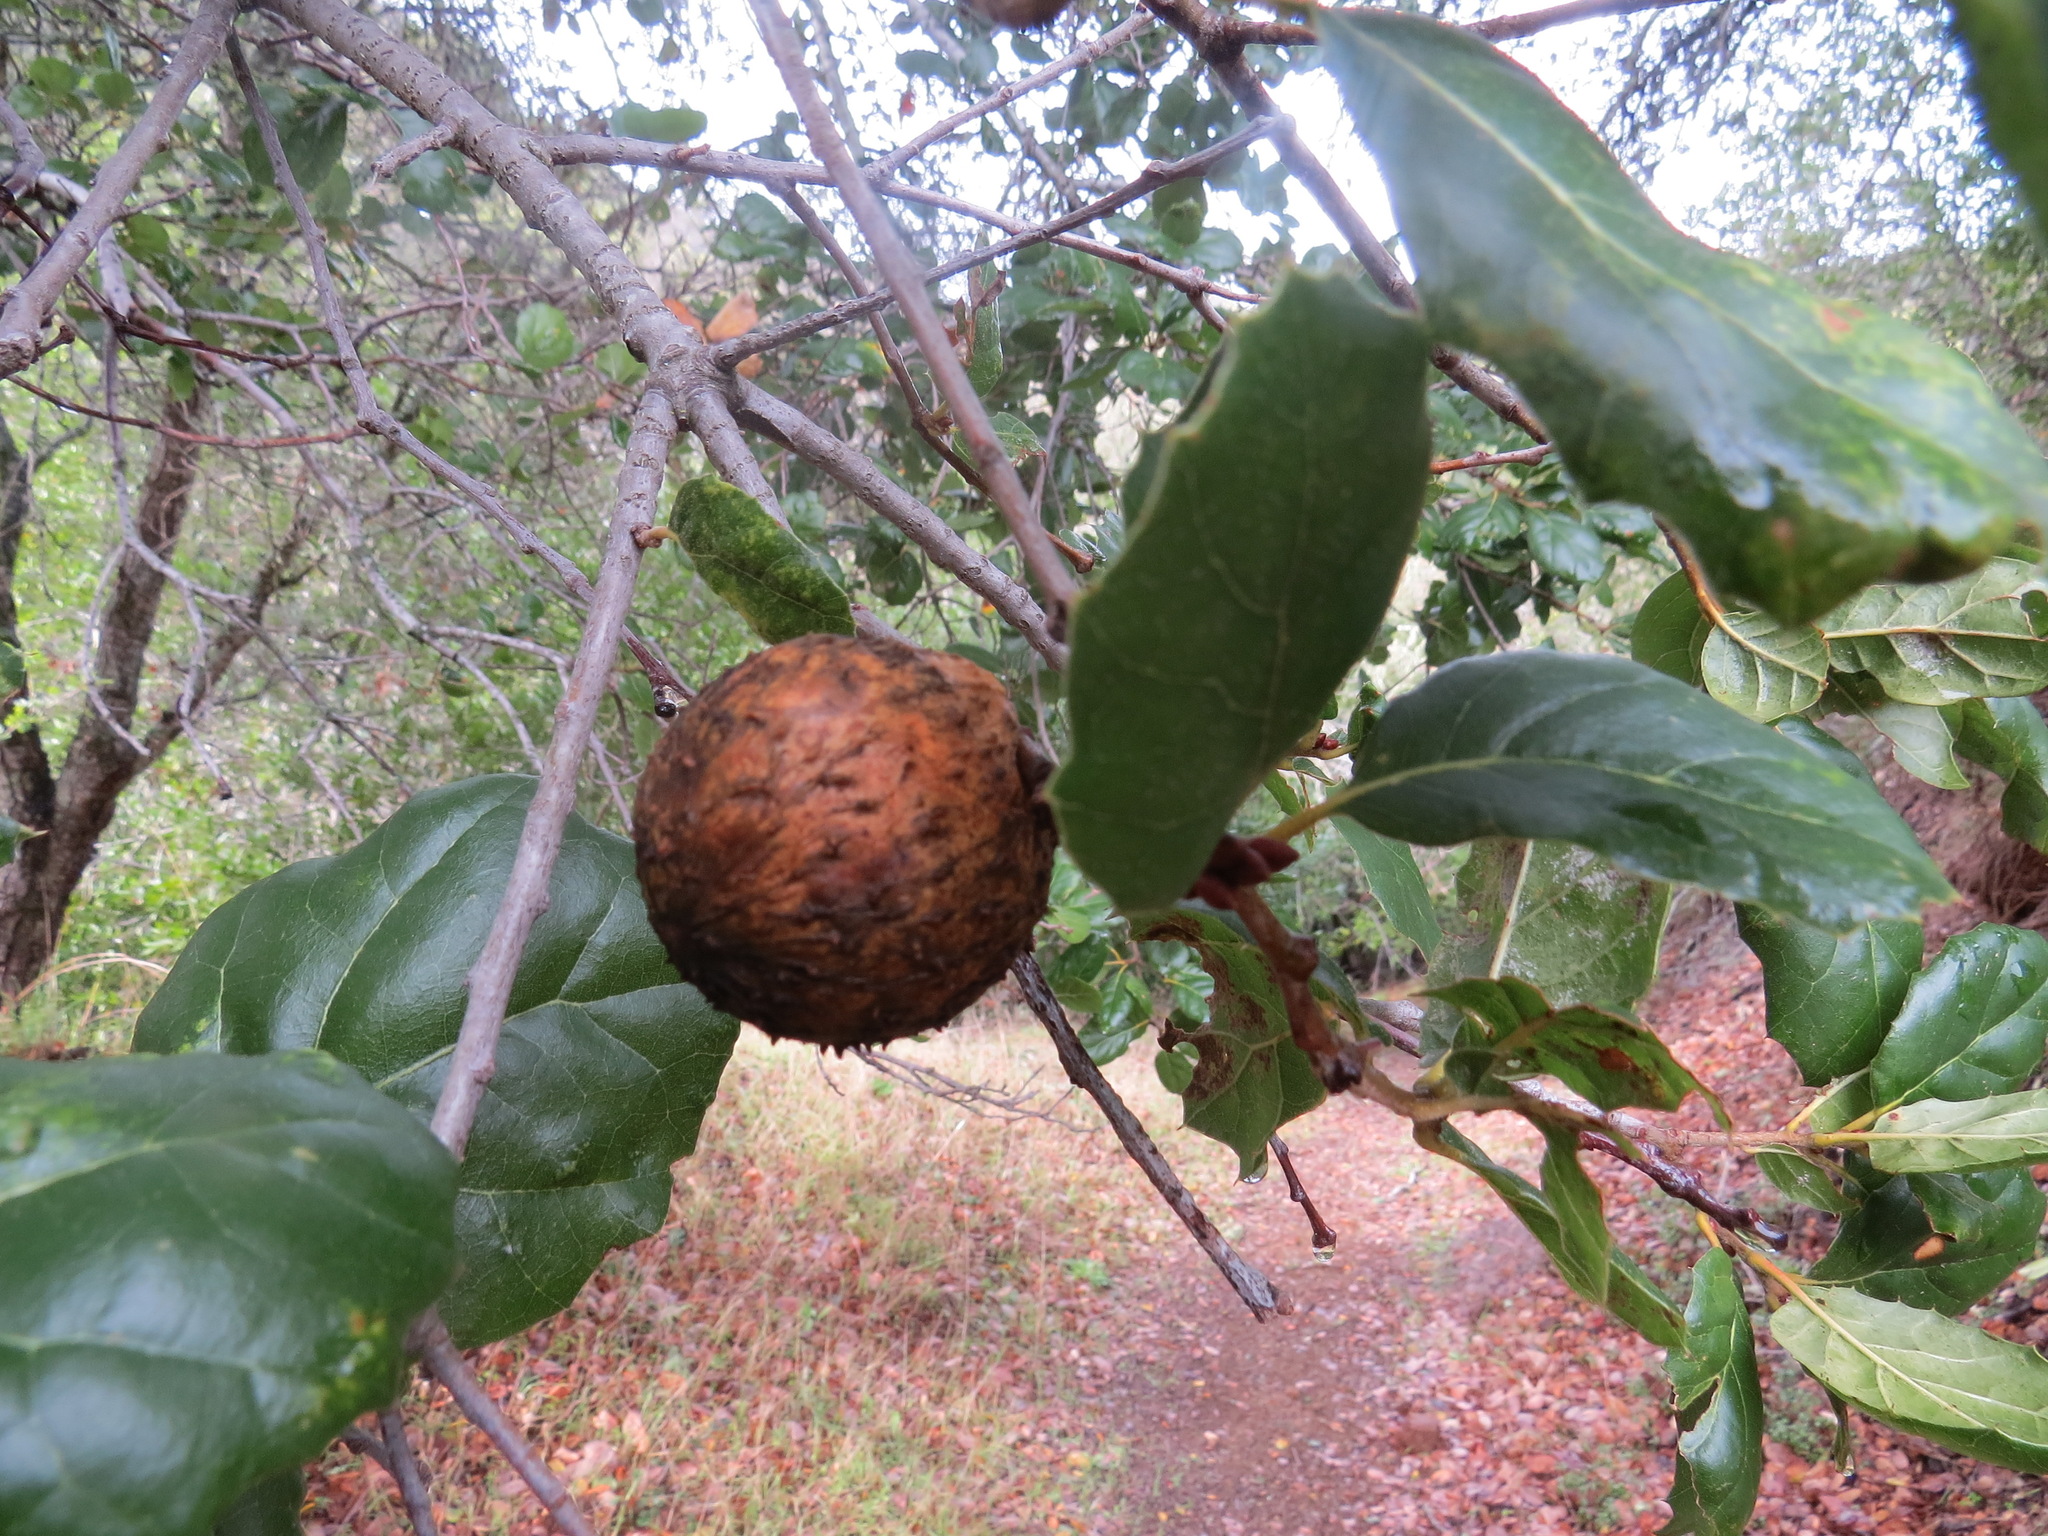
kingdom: Animalia
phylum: Arthropoda
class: Insecta
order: Hymenoptera
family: Cynipidae
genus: Amphibolips
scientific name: Amphibolips quercuspomiformis
